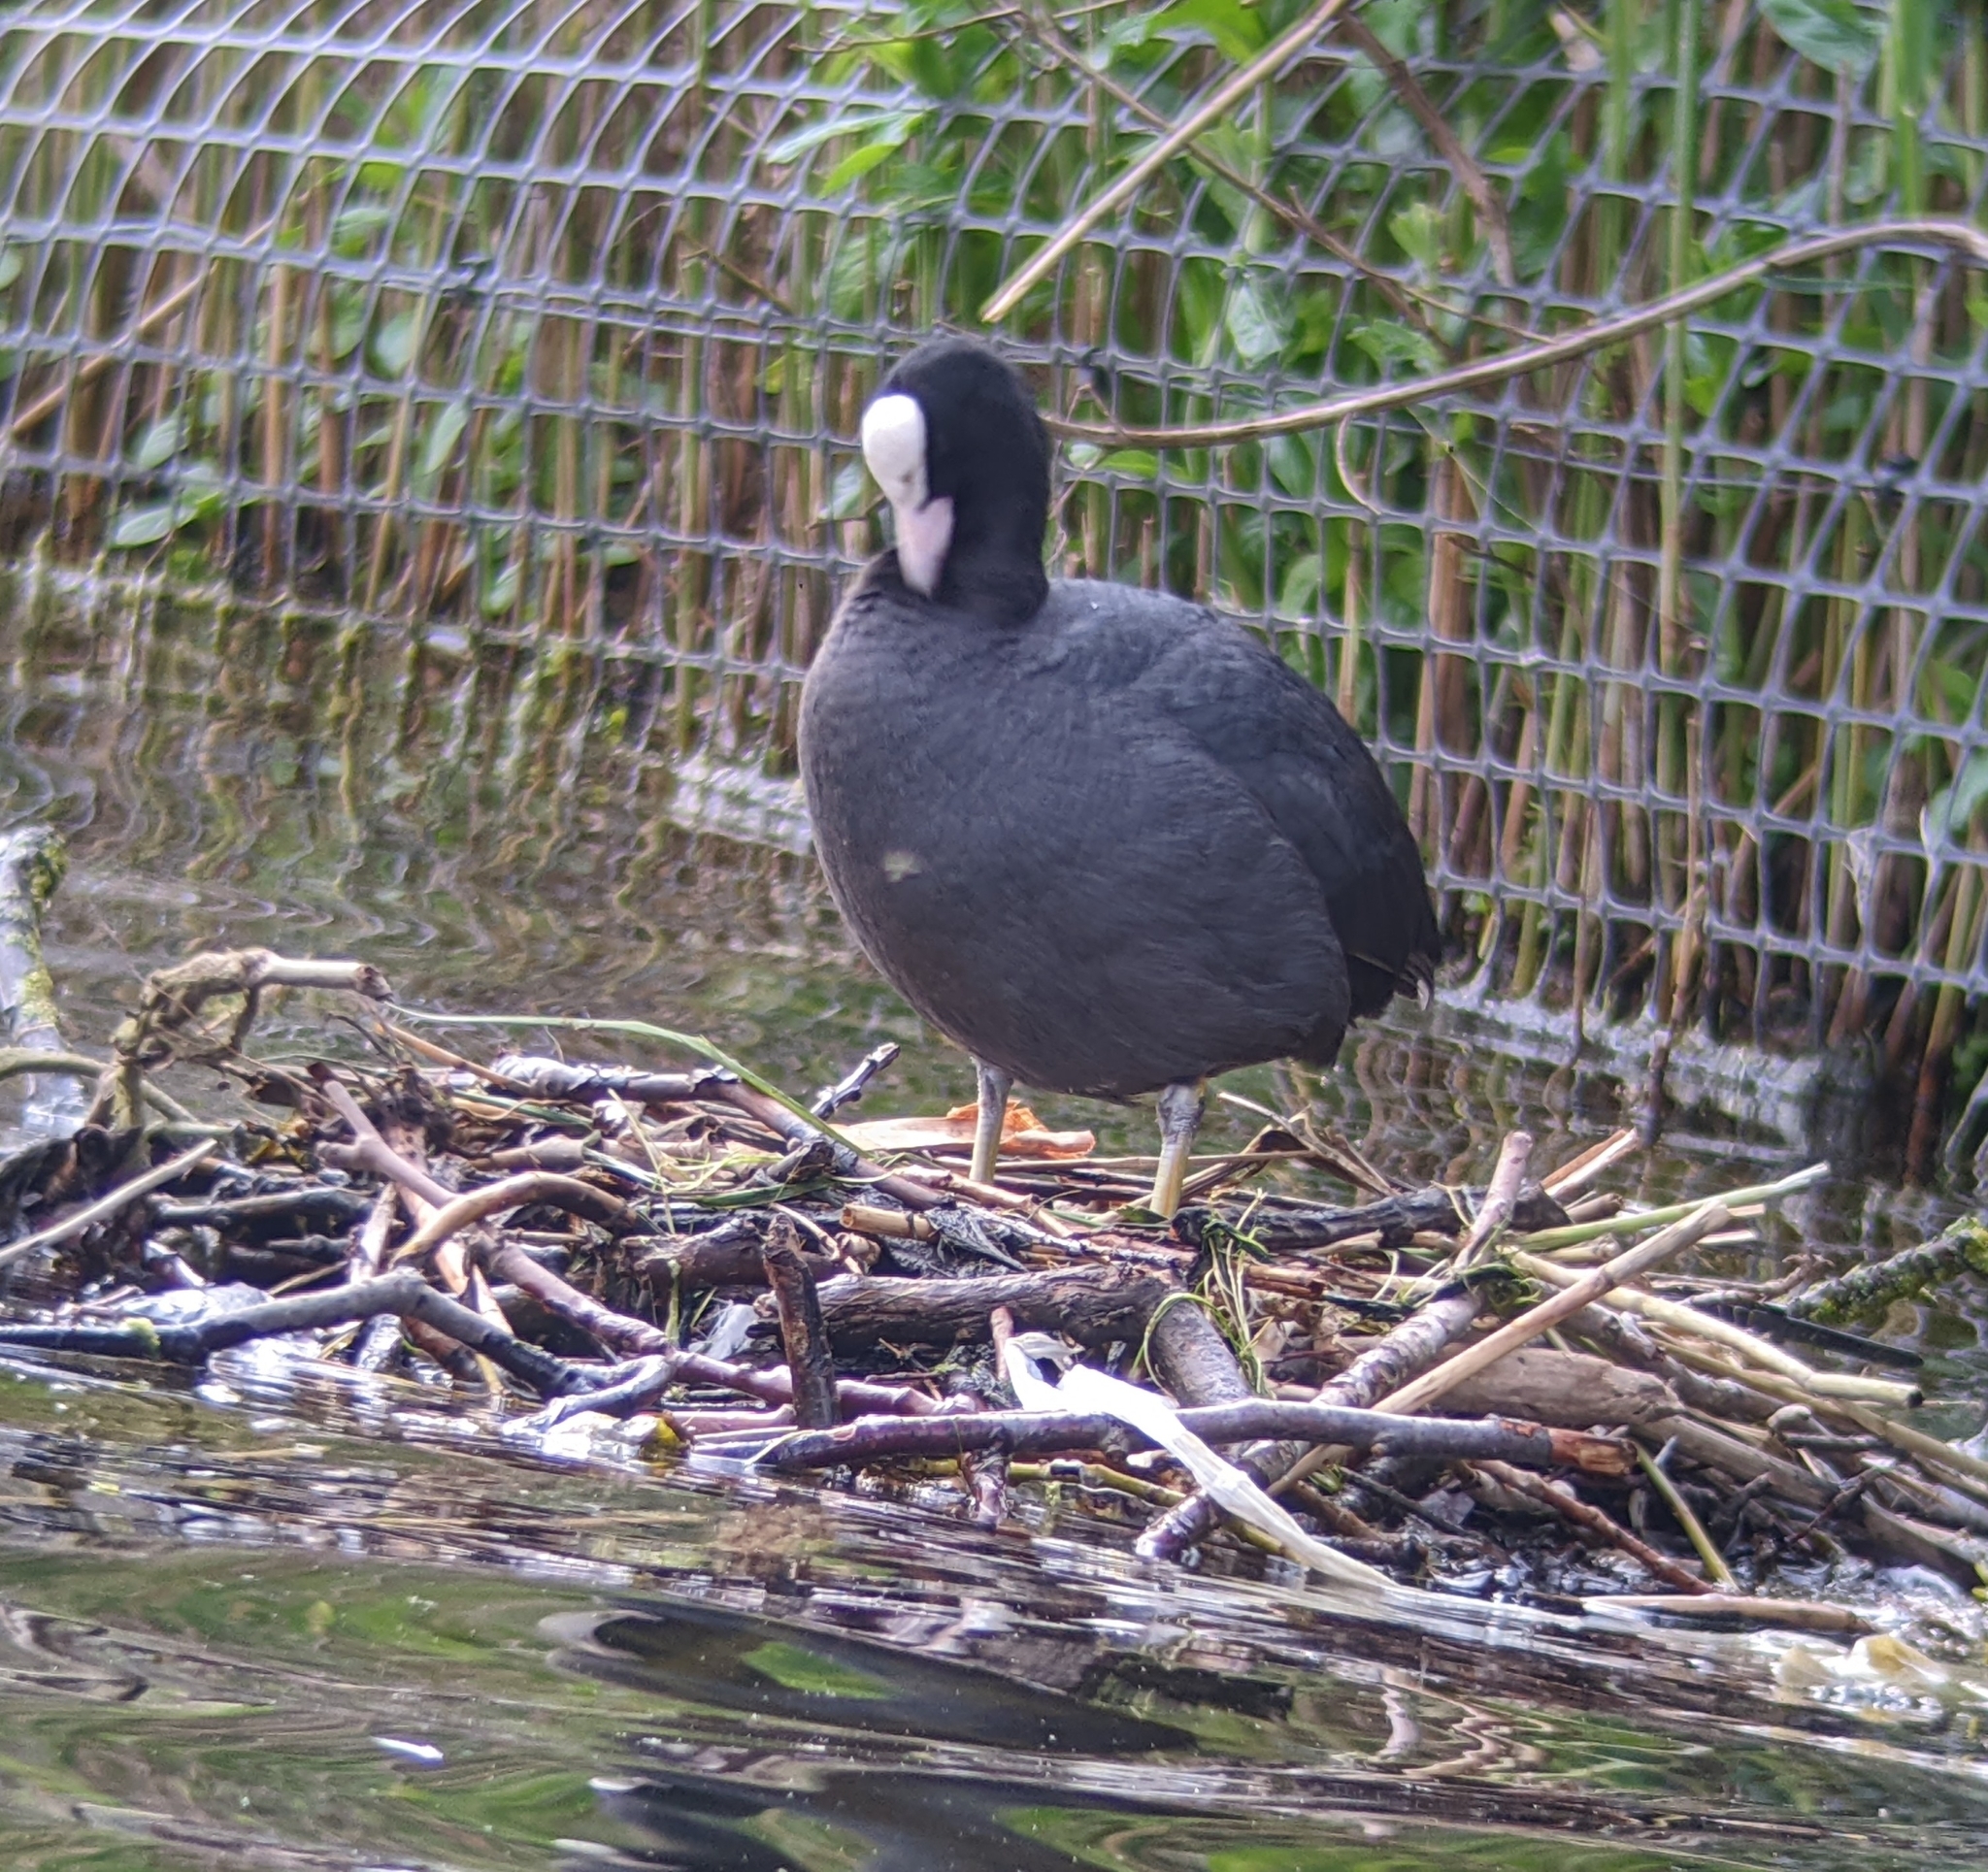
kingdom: Animalia
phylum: Chordata
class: Aves
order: Gruiformes
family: Rallidae
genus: Fulica
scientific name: Fulica atra
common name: Eurasian coot
